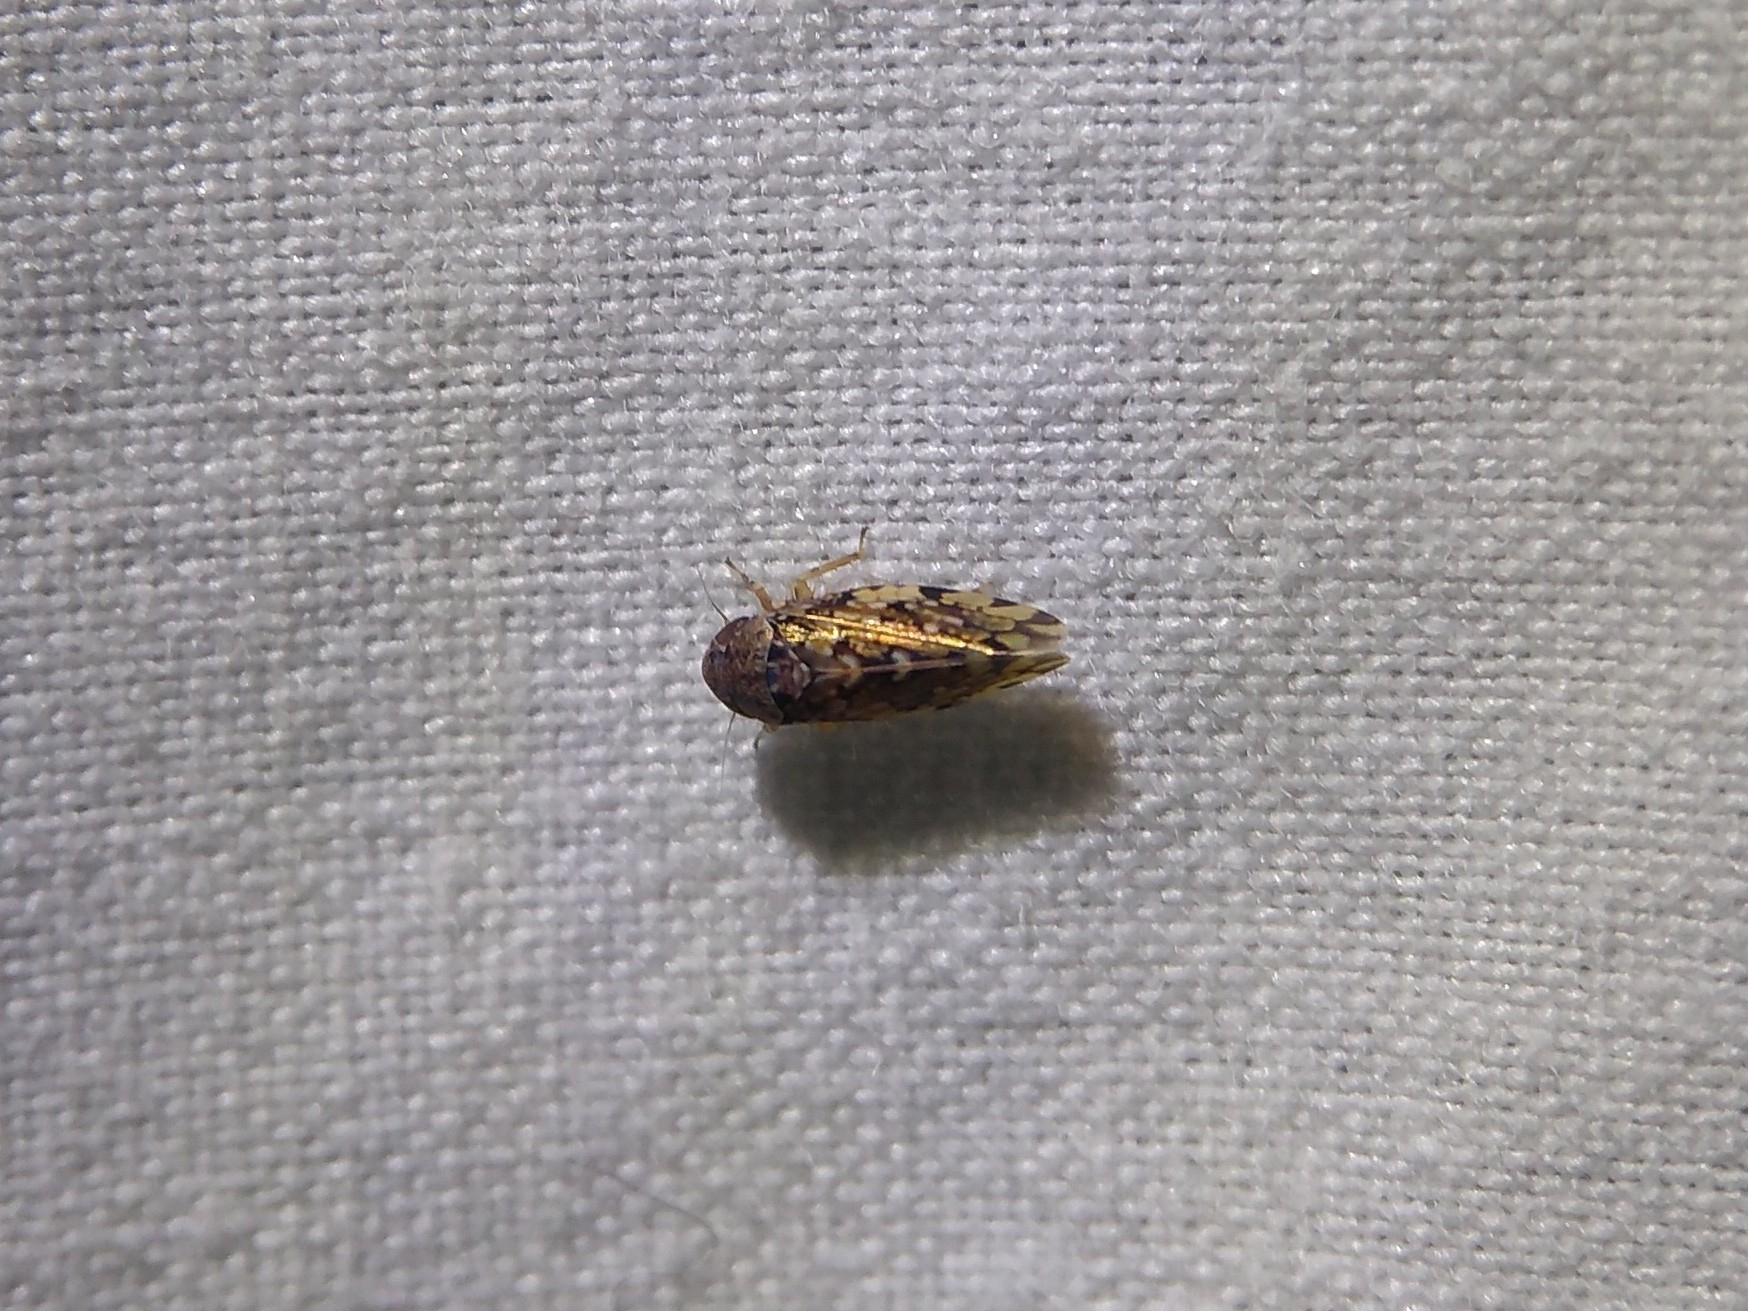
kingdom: Animalia
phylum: Arthropoda
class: Insecta
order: Hemiptera
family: Cicadellidae
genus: Xestocephalus
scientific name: Xestocephalus tessellatus
